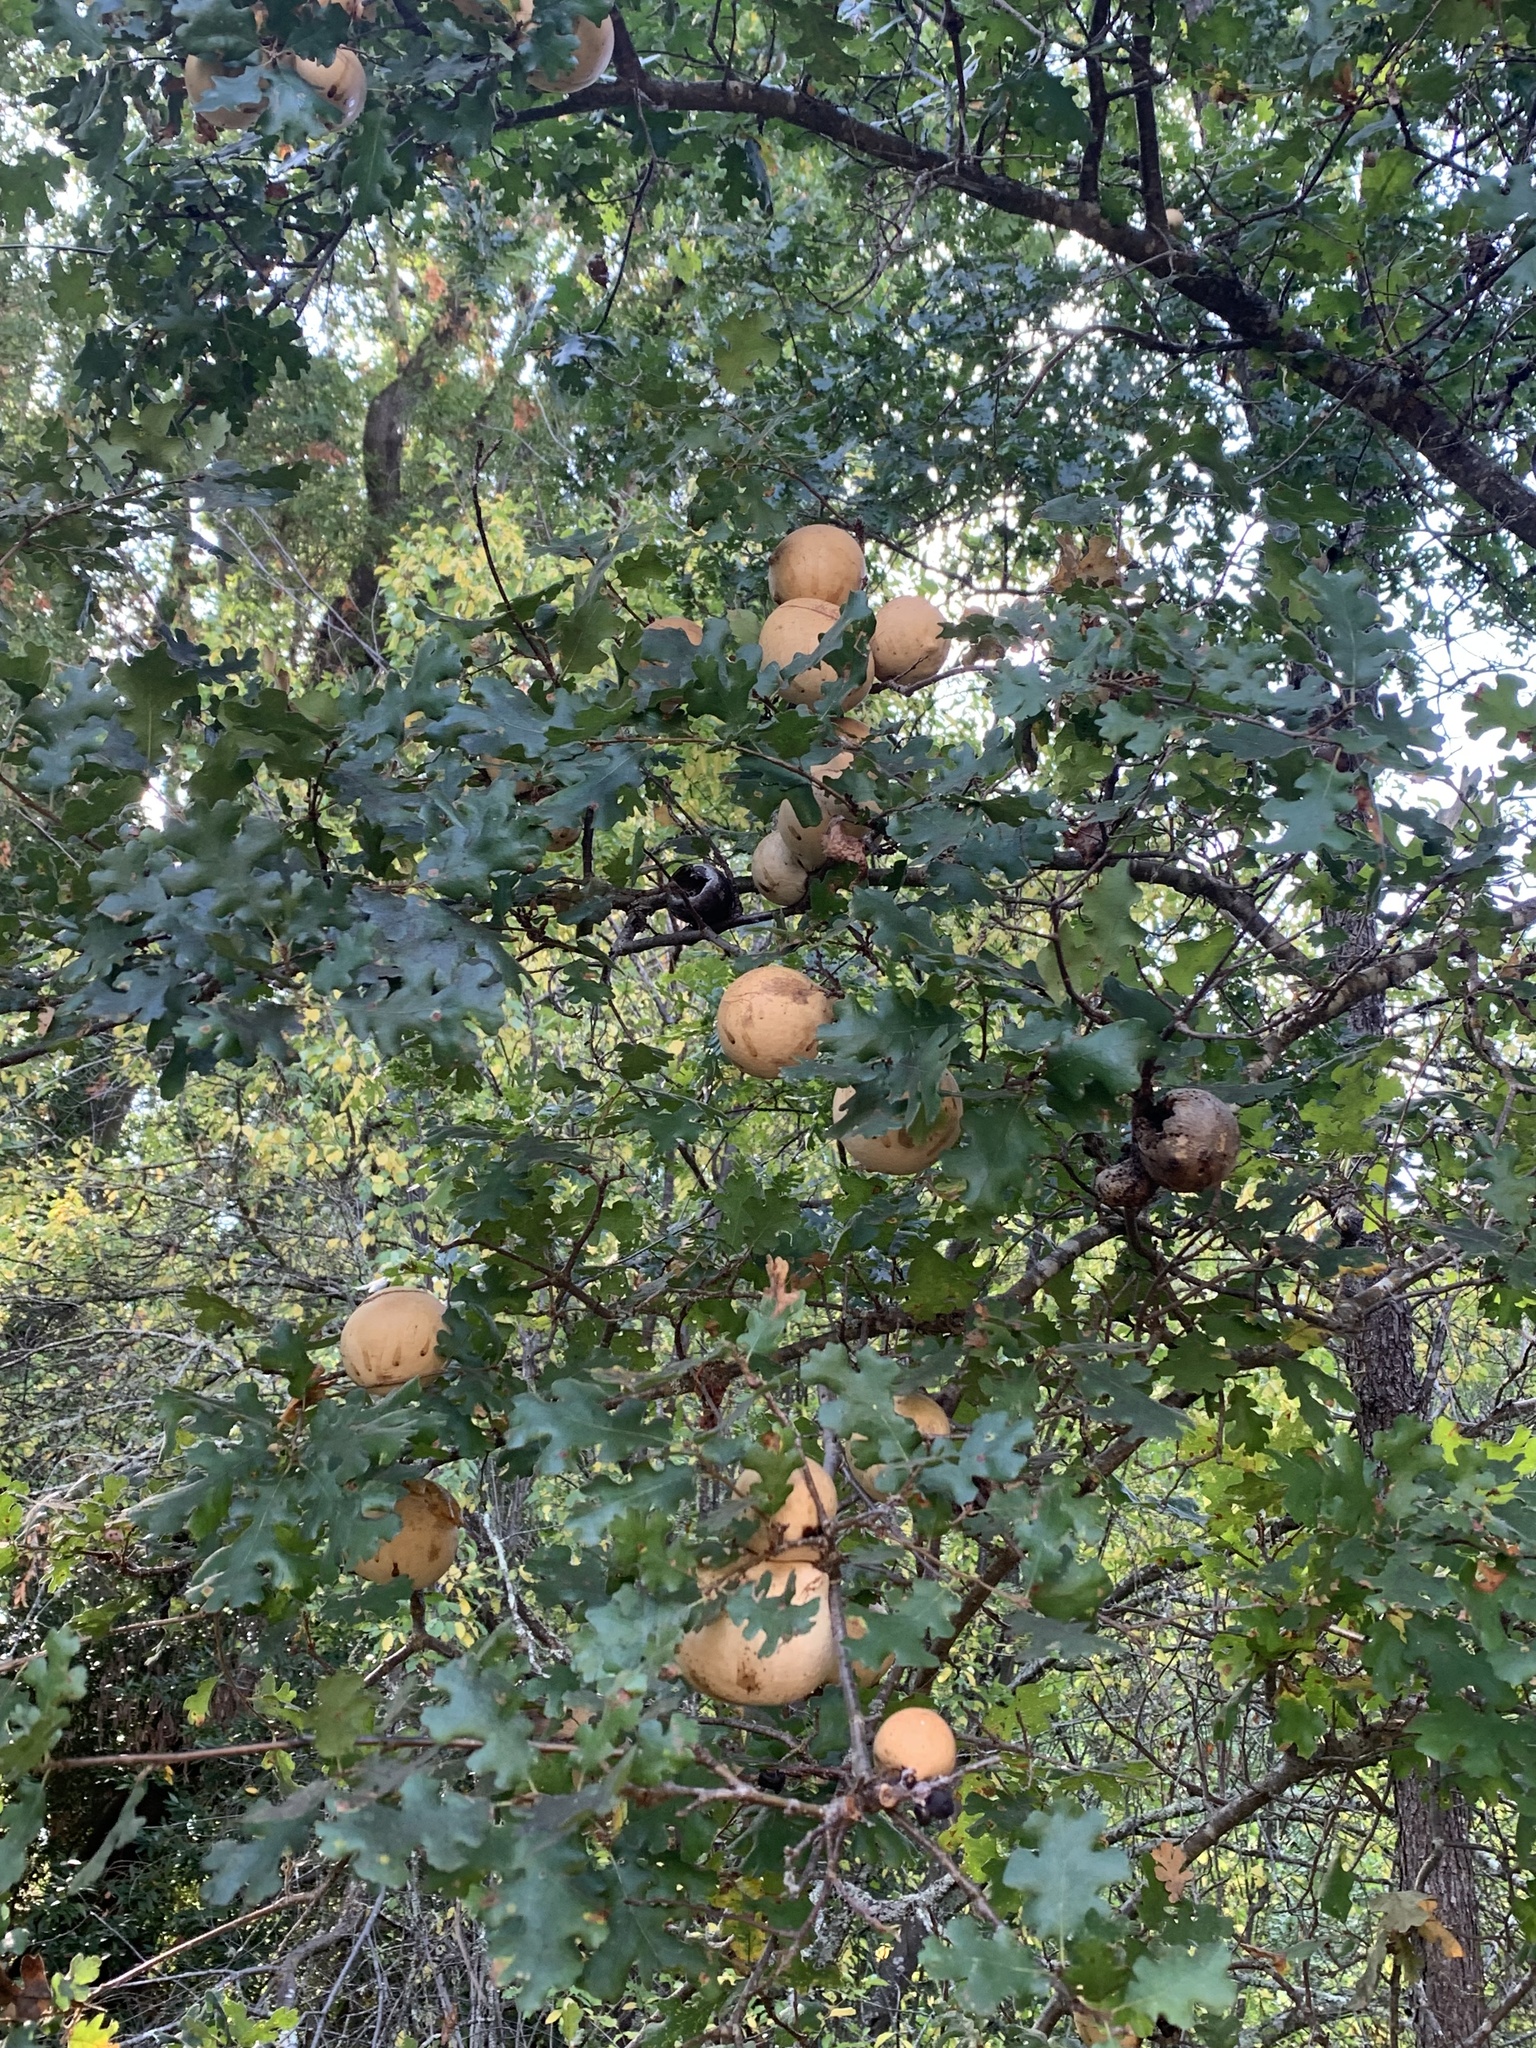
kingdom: Animalia
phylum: Arthropoda
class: Insecta
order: Hymenoptera
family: Cynipidae
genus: Andricus
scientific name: Andricus quercuscalifornicus
